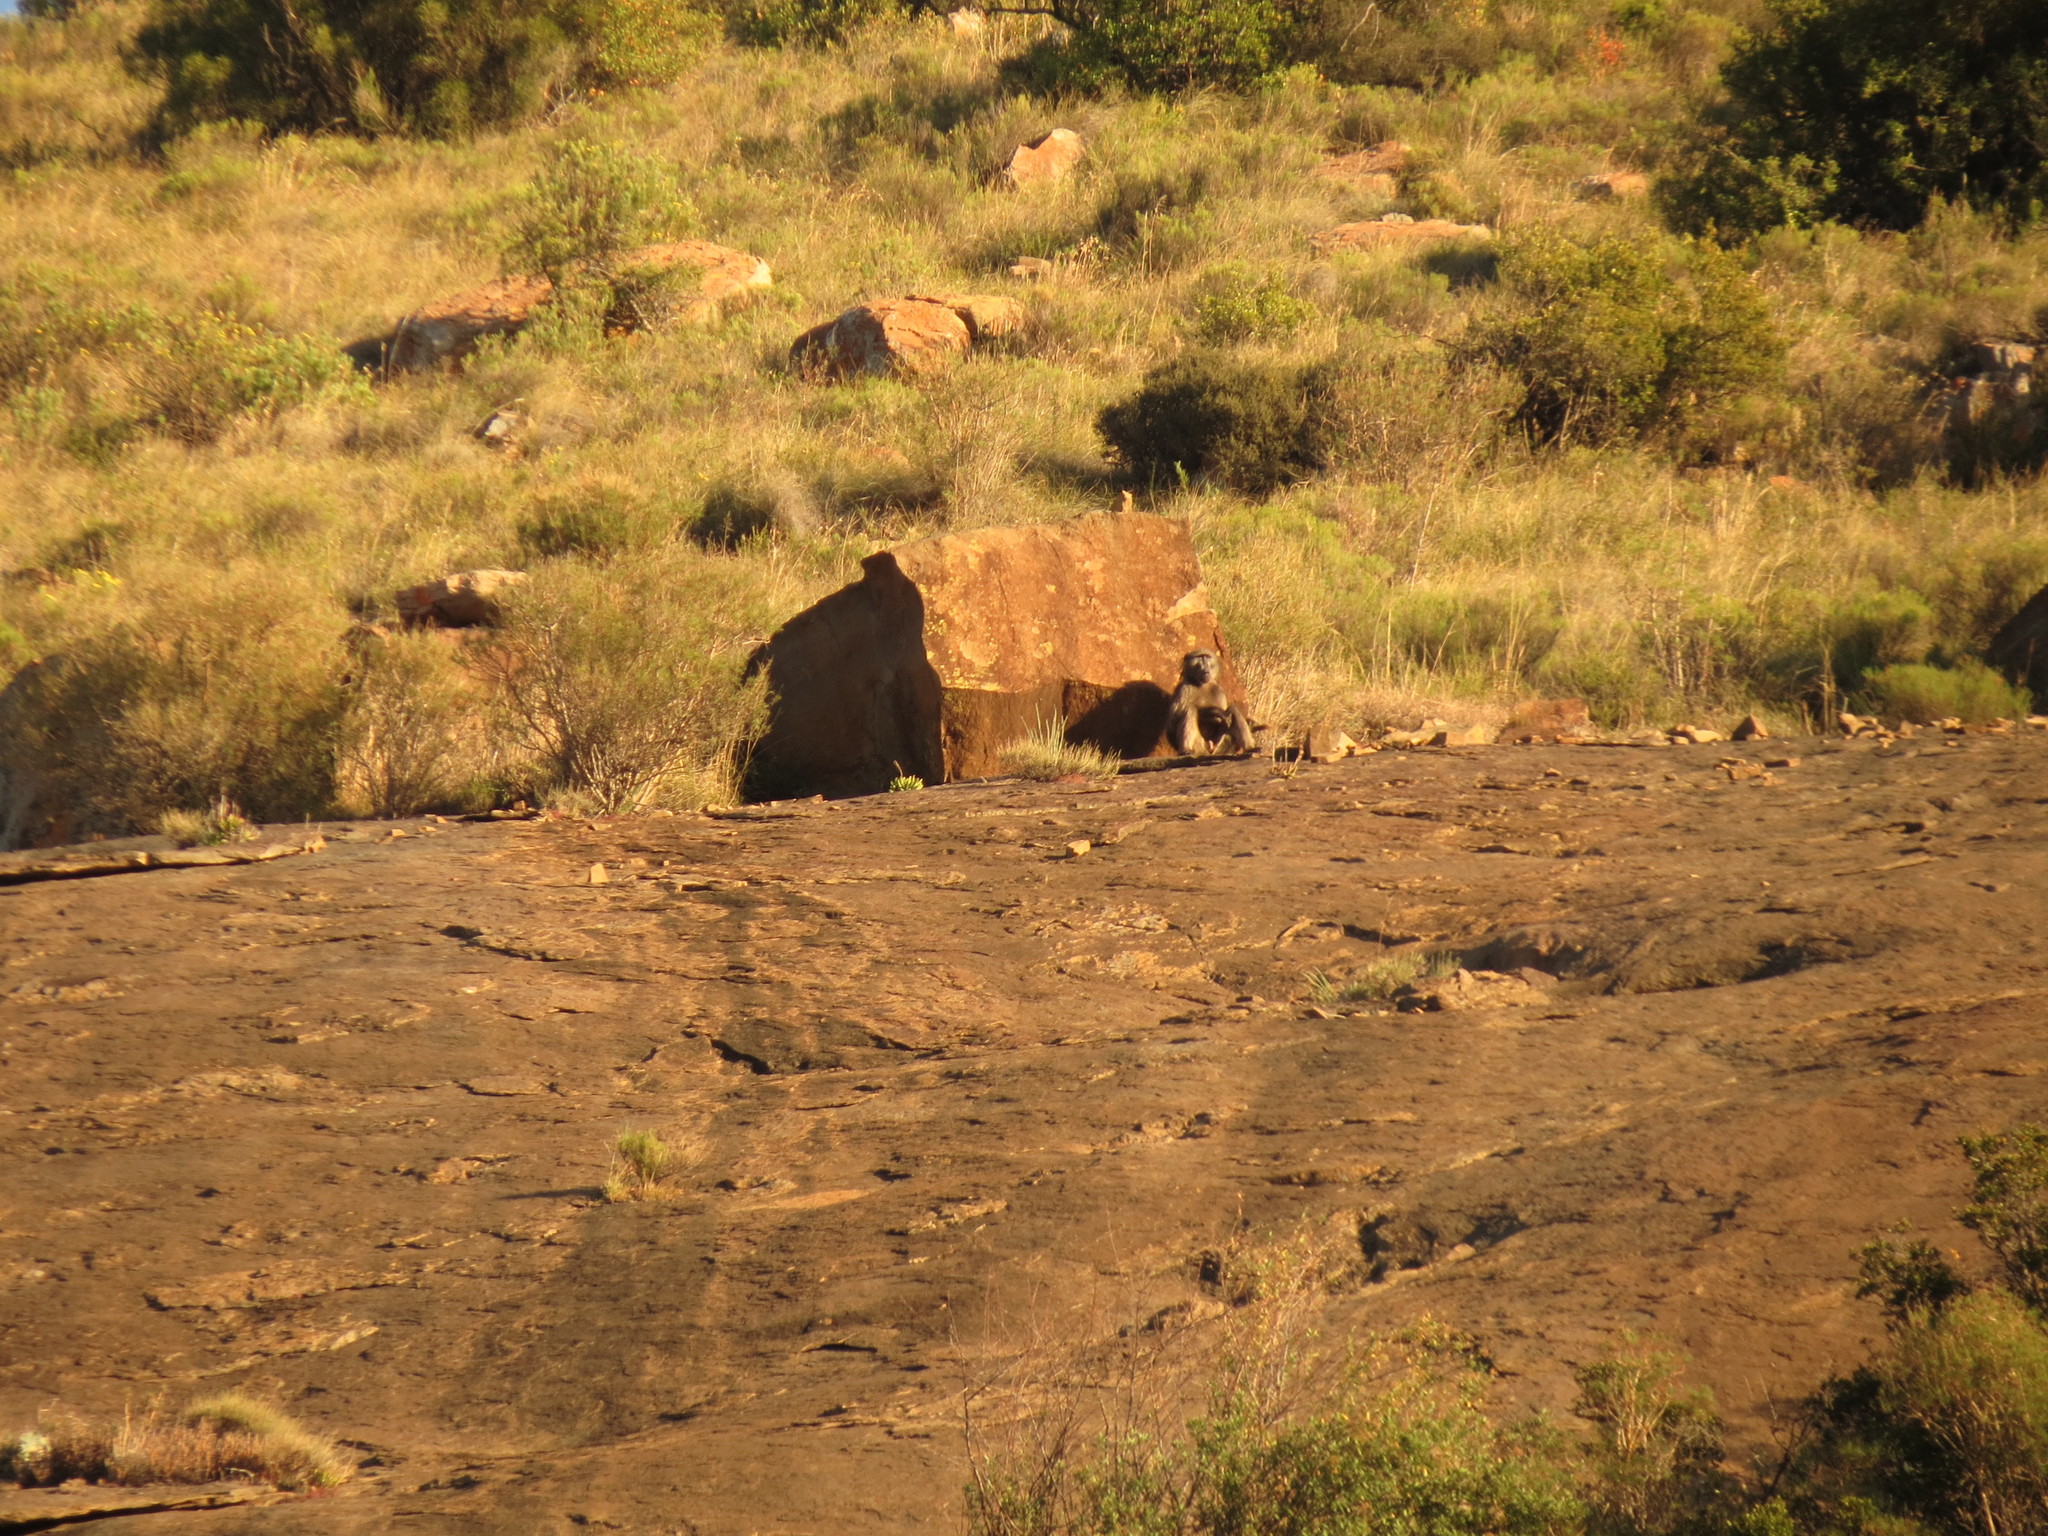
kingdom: Animalia
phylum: Chordata
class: Mammalia
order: Primates
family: Cercopithecidae
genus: Papio
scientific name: Papio ursinus
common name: Chacma baboon
